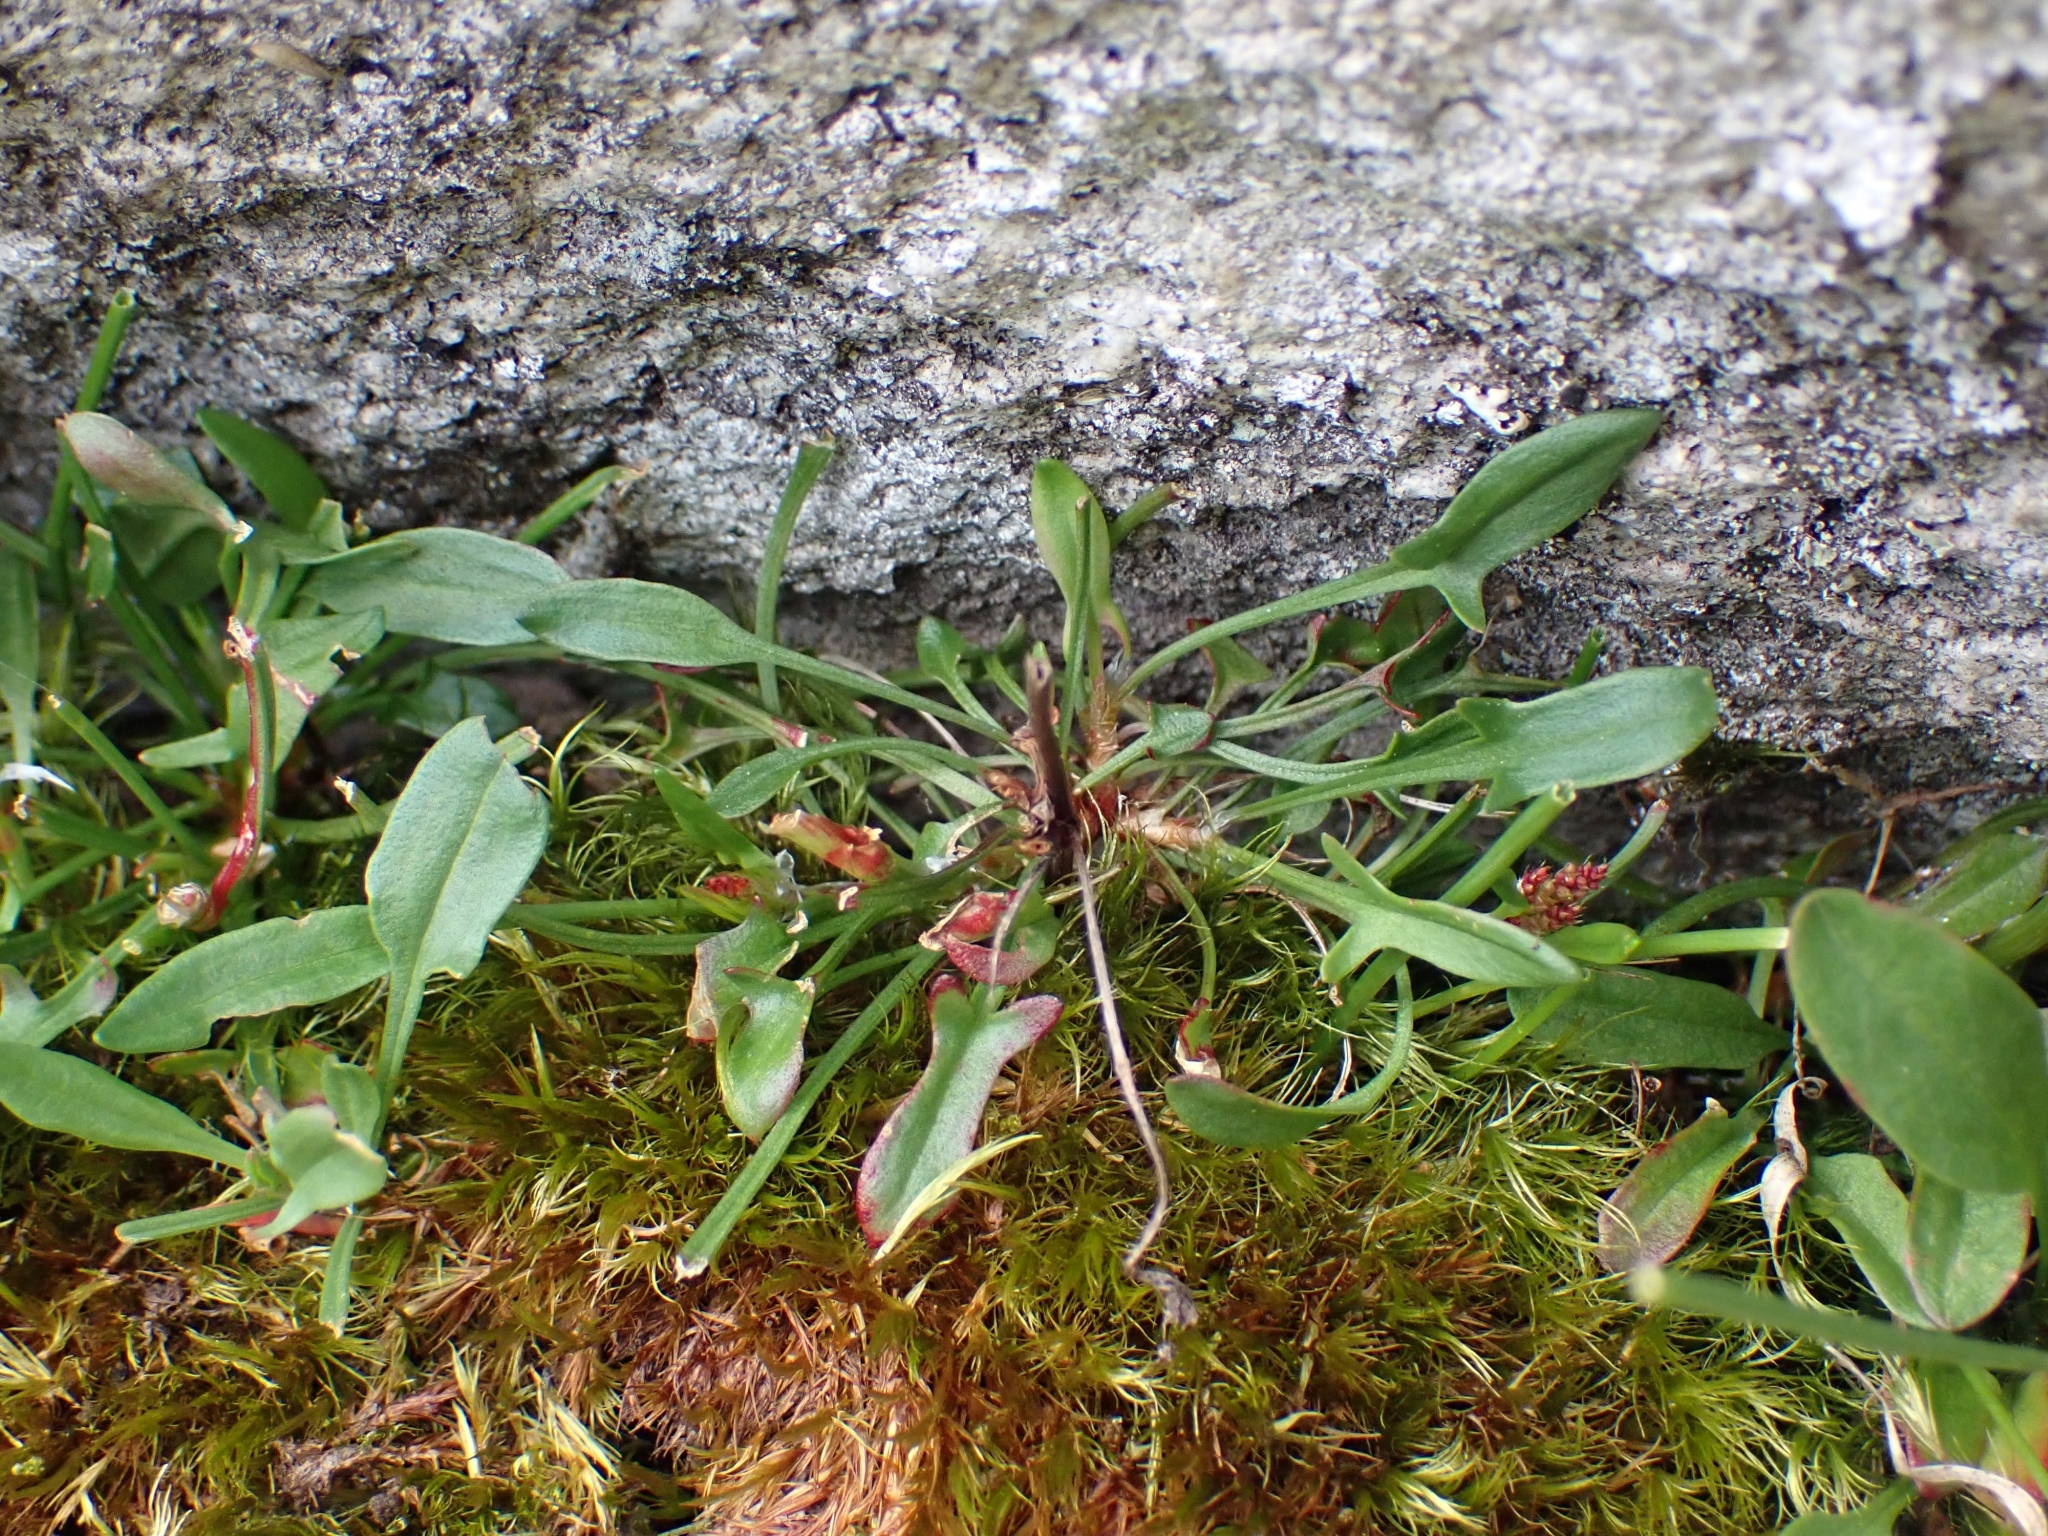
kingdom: Plantae
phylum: Tracheophyta
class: Magnoliopsida
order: Caryophyllales
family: Polygonaceae
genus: Rumex
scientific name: Rumex acetosella
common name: Common sheep sorrel
